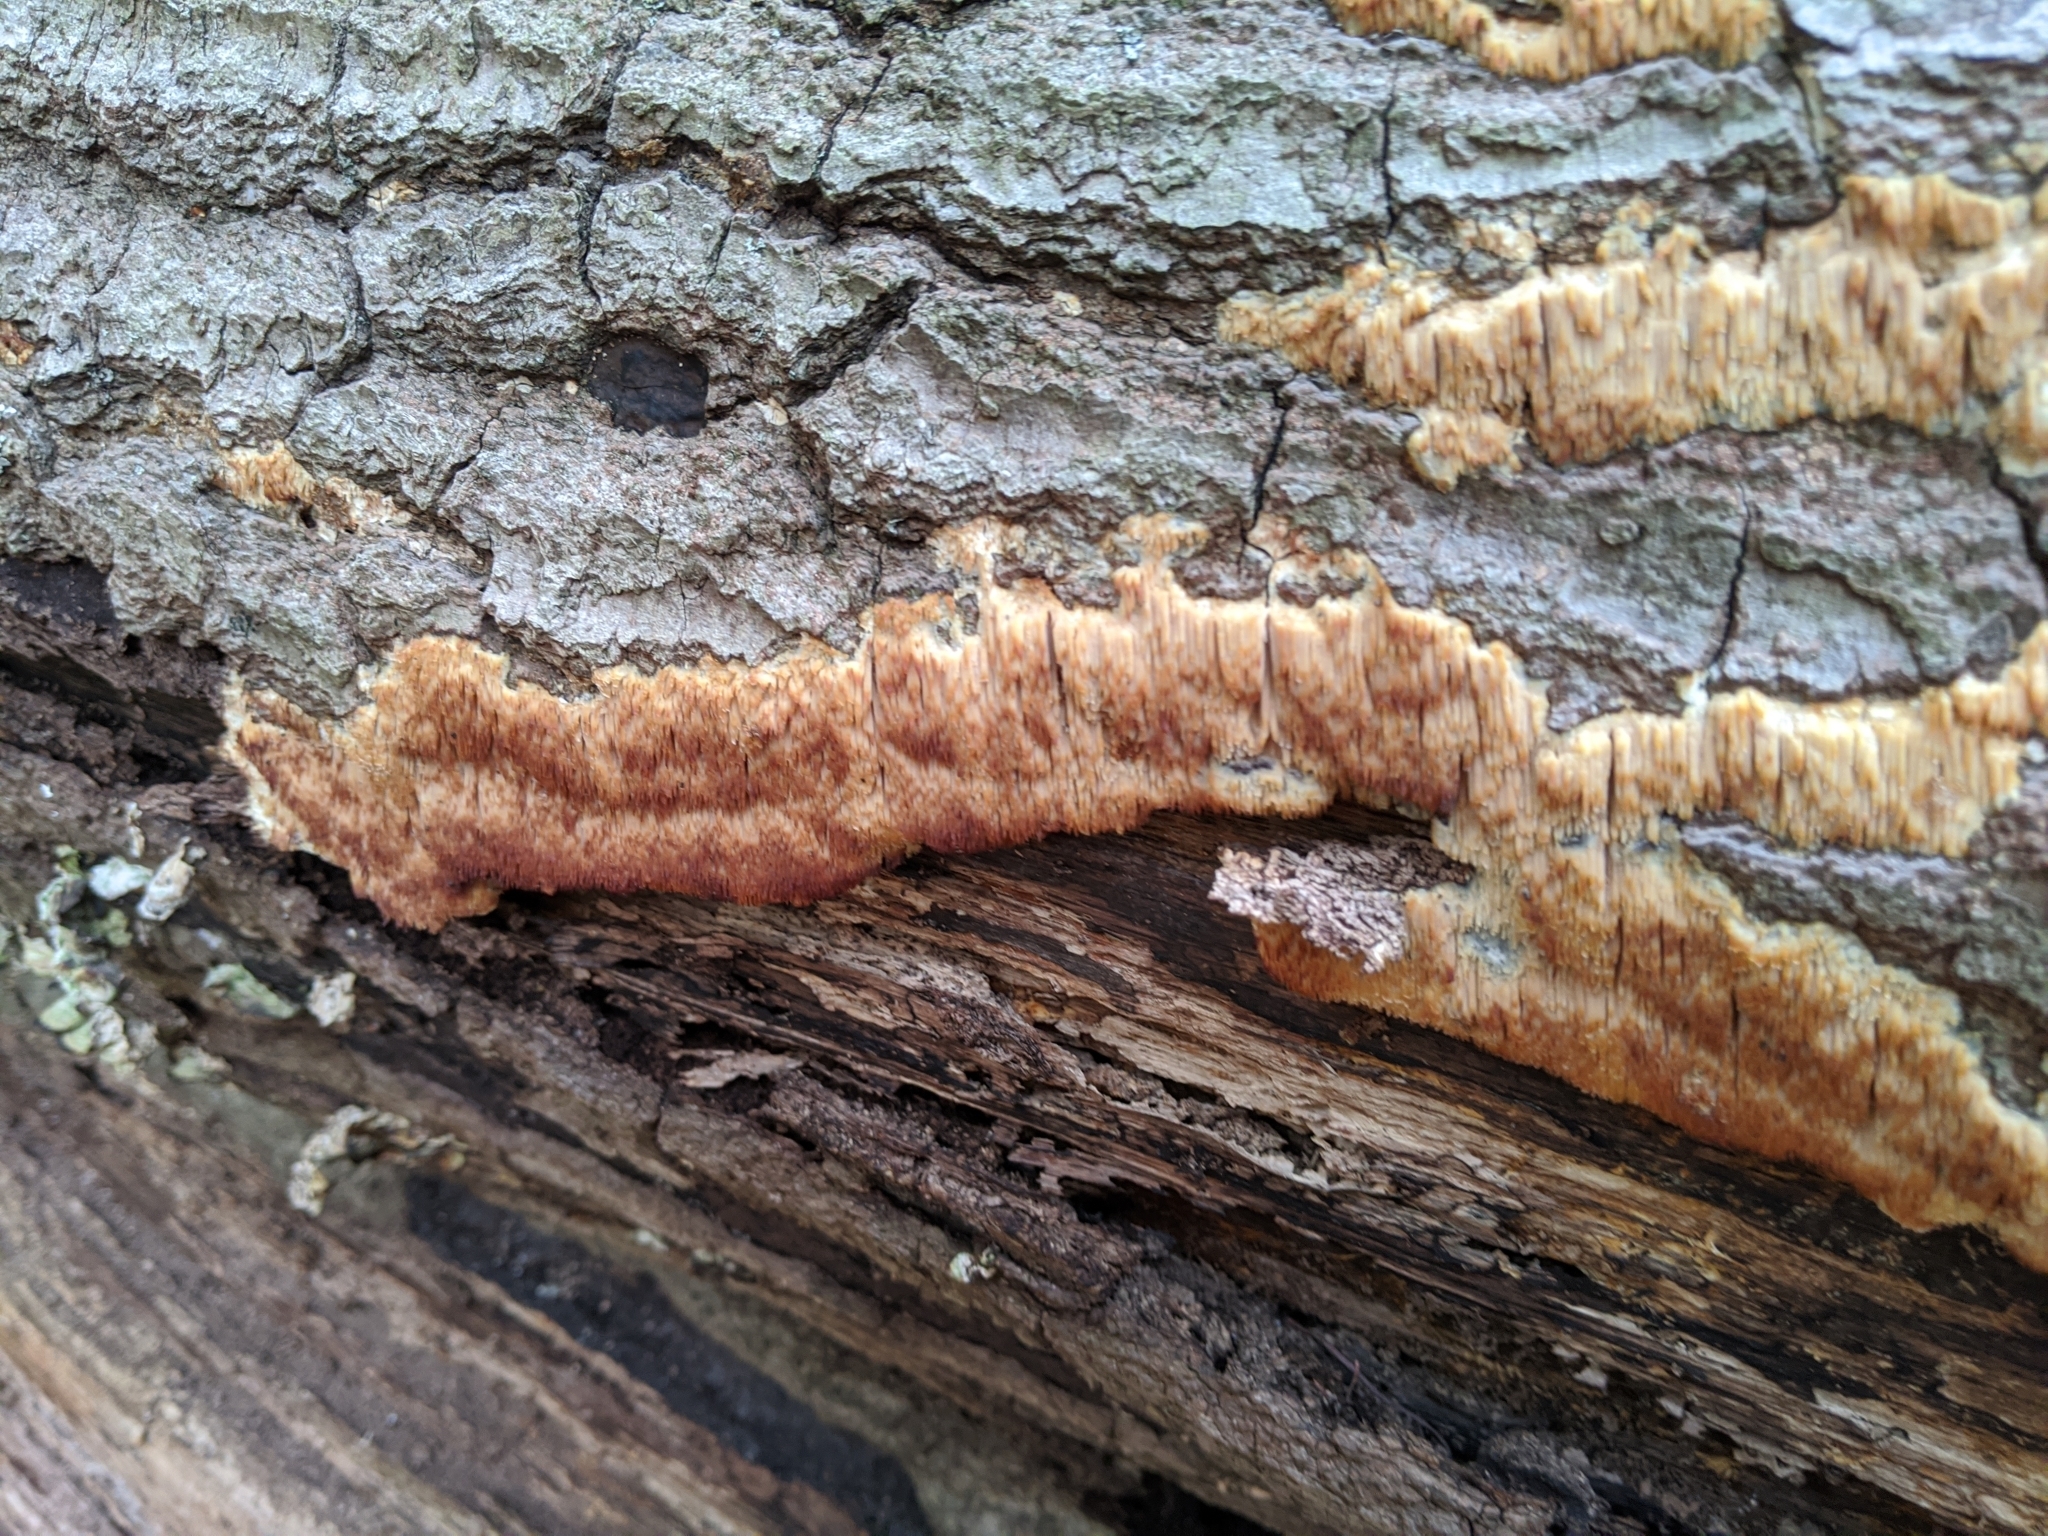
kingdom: Fungi
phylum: Basidiomycota
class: Agaricomycetes
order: Agaricales
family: Radulomycetaceae
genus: Radulomyces
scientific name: Radulomyces copelandii
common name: Asian beauty
